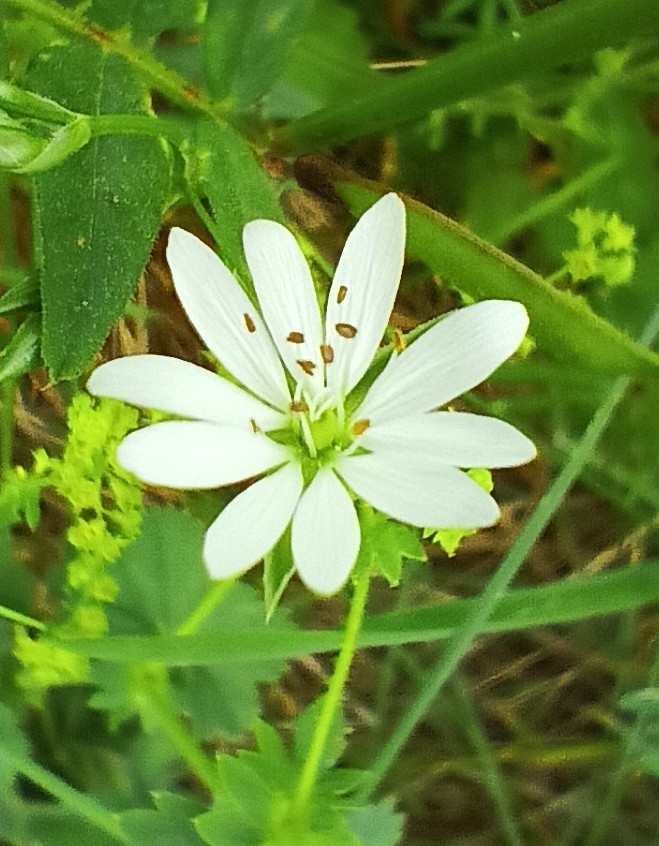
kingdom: Plantae
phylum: Tracheophyta
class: Magnoliopsida
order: Caryophyllales
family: Caryophyllaceae
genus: Stellaria
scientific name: Stellaria graminea
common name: Grass-like starwort
